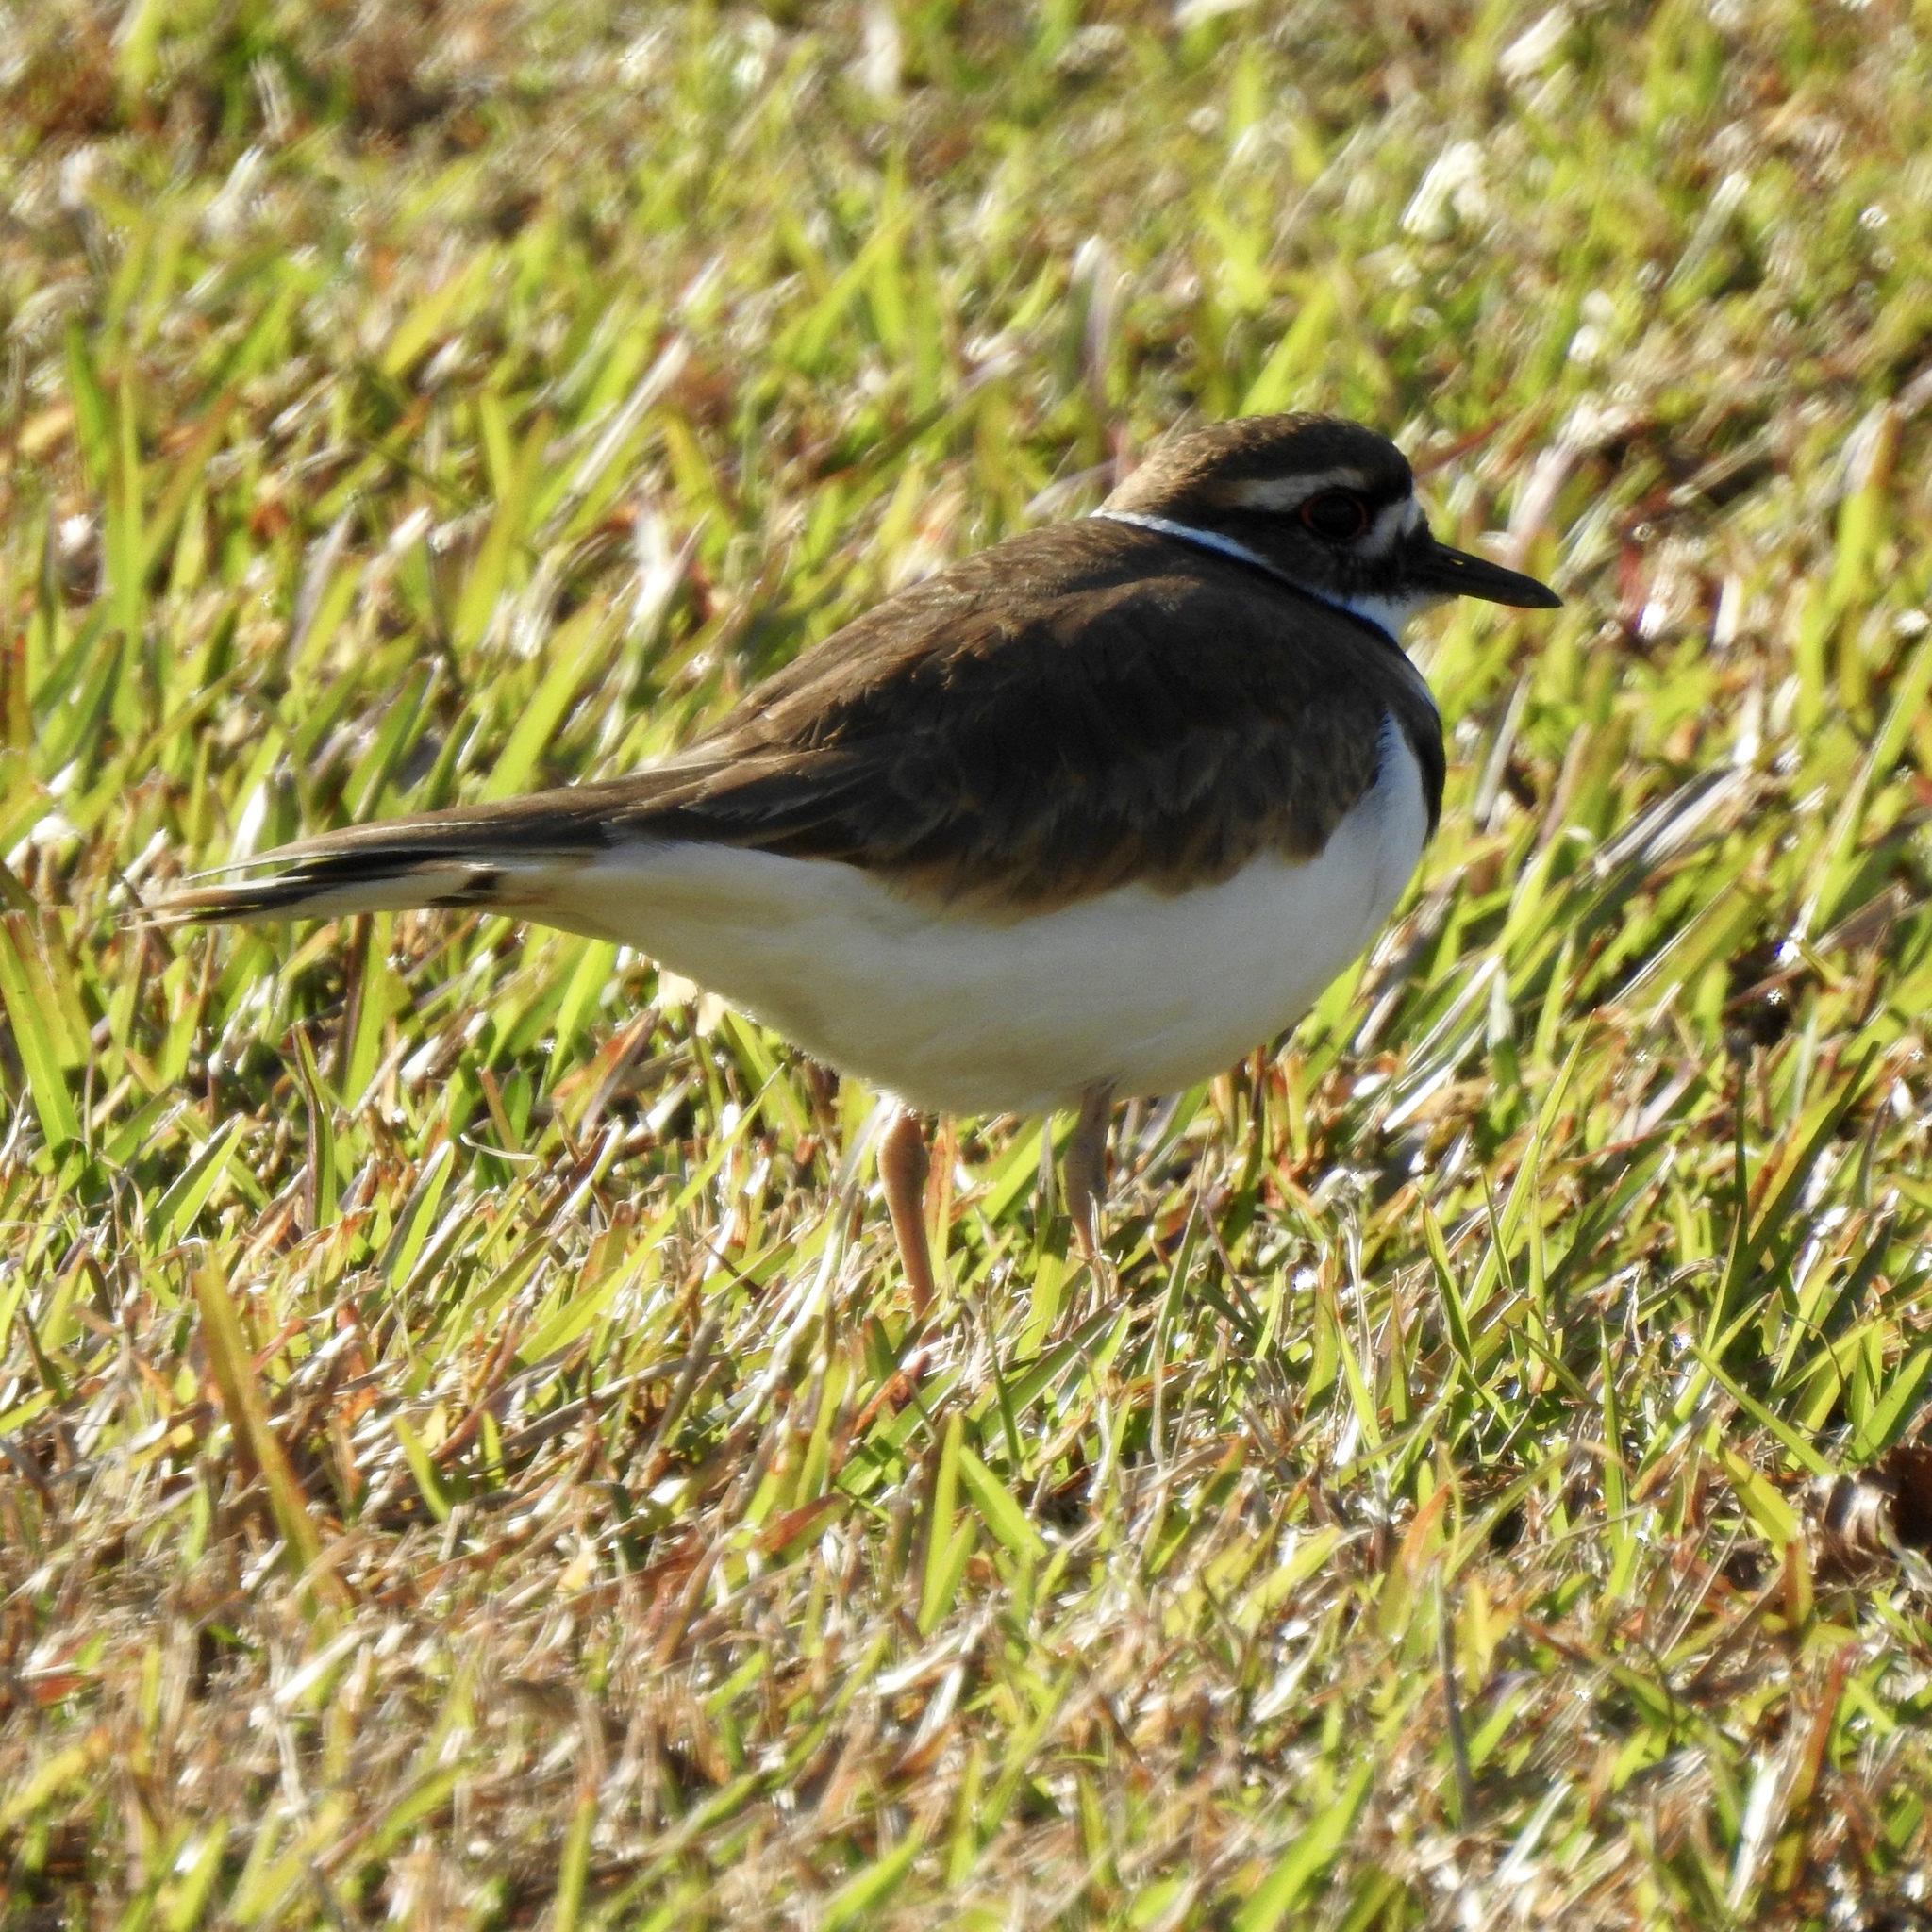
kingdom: Animalia
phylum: Chordata
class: Aves
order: Charadriiformes
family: Charadriidae
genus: Charadrius
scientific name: Charadrius vociferus
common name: Killdeer
